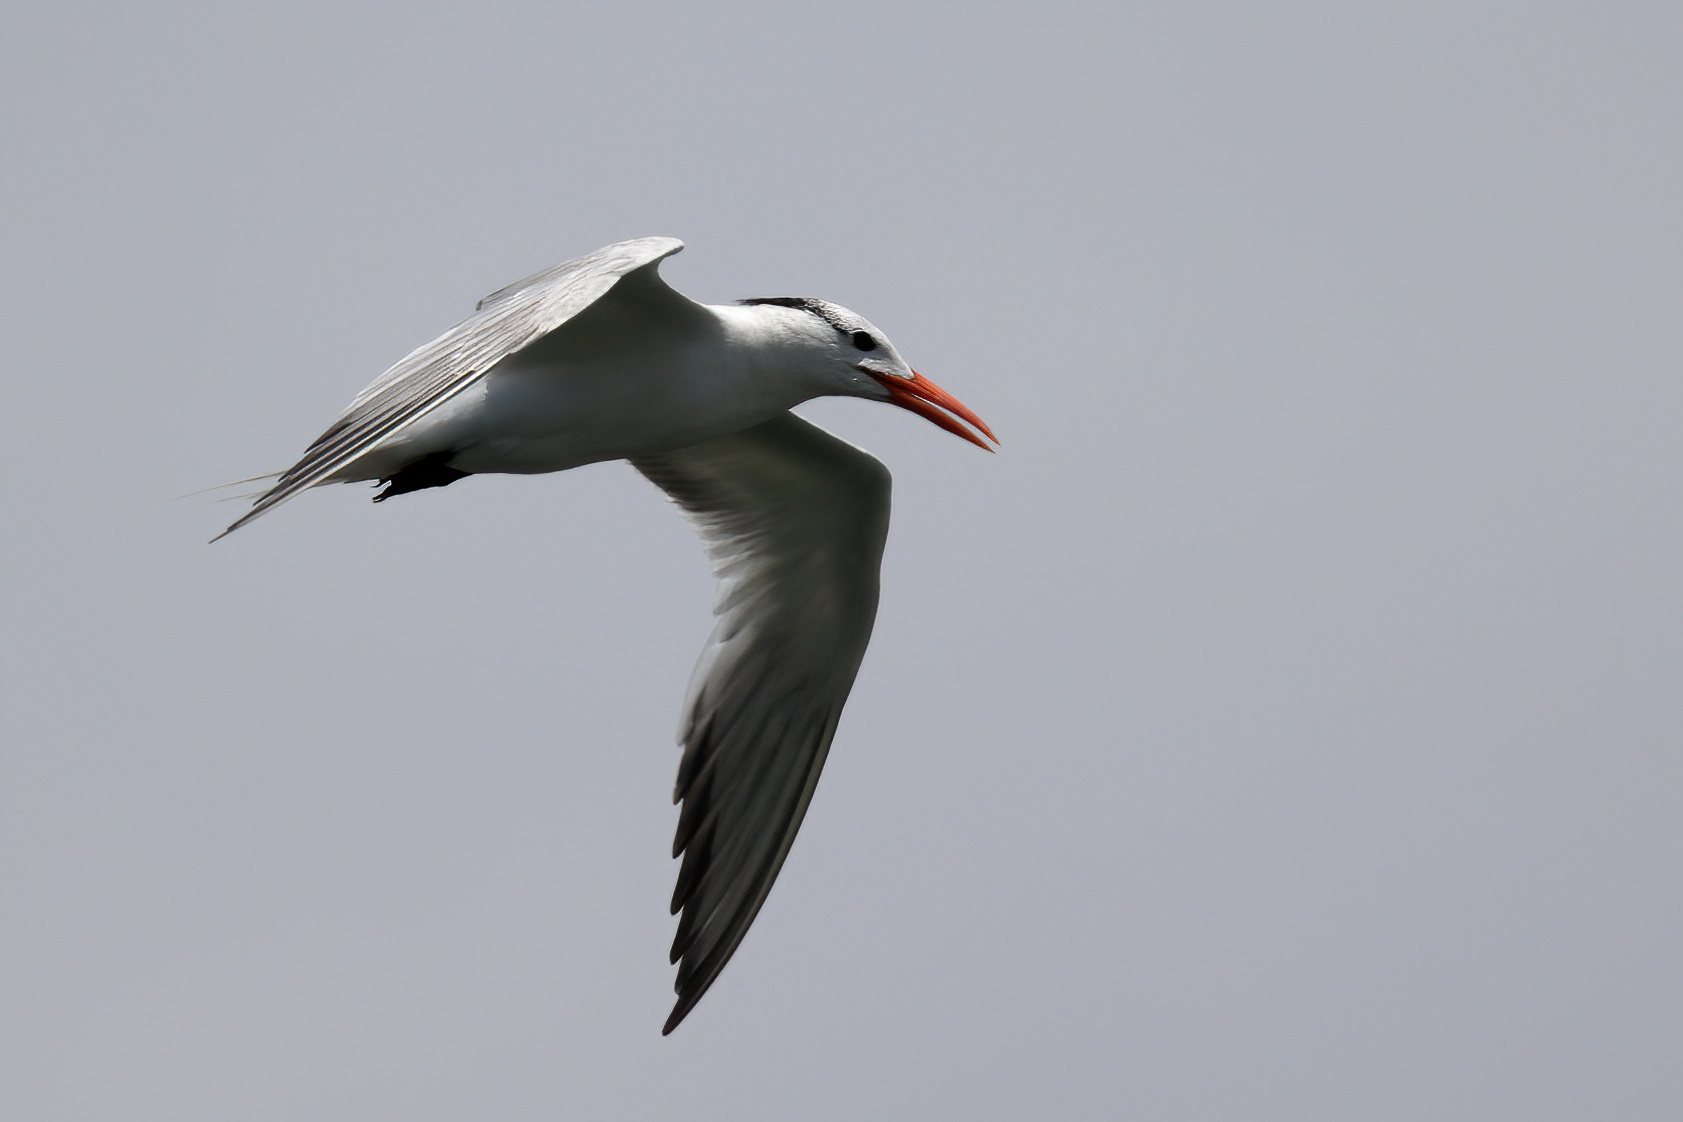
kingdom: Animalia
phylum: Chordata
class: Aves
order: Charadriiformes
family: Laridae
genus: Thalasseus
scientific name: Thalasseus maximus
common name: Royal tern
